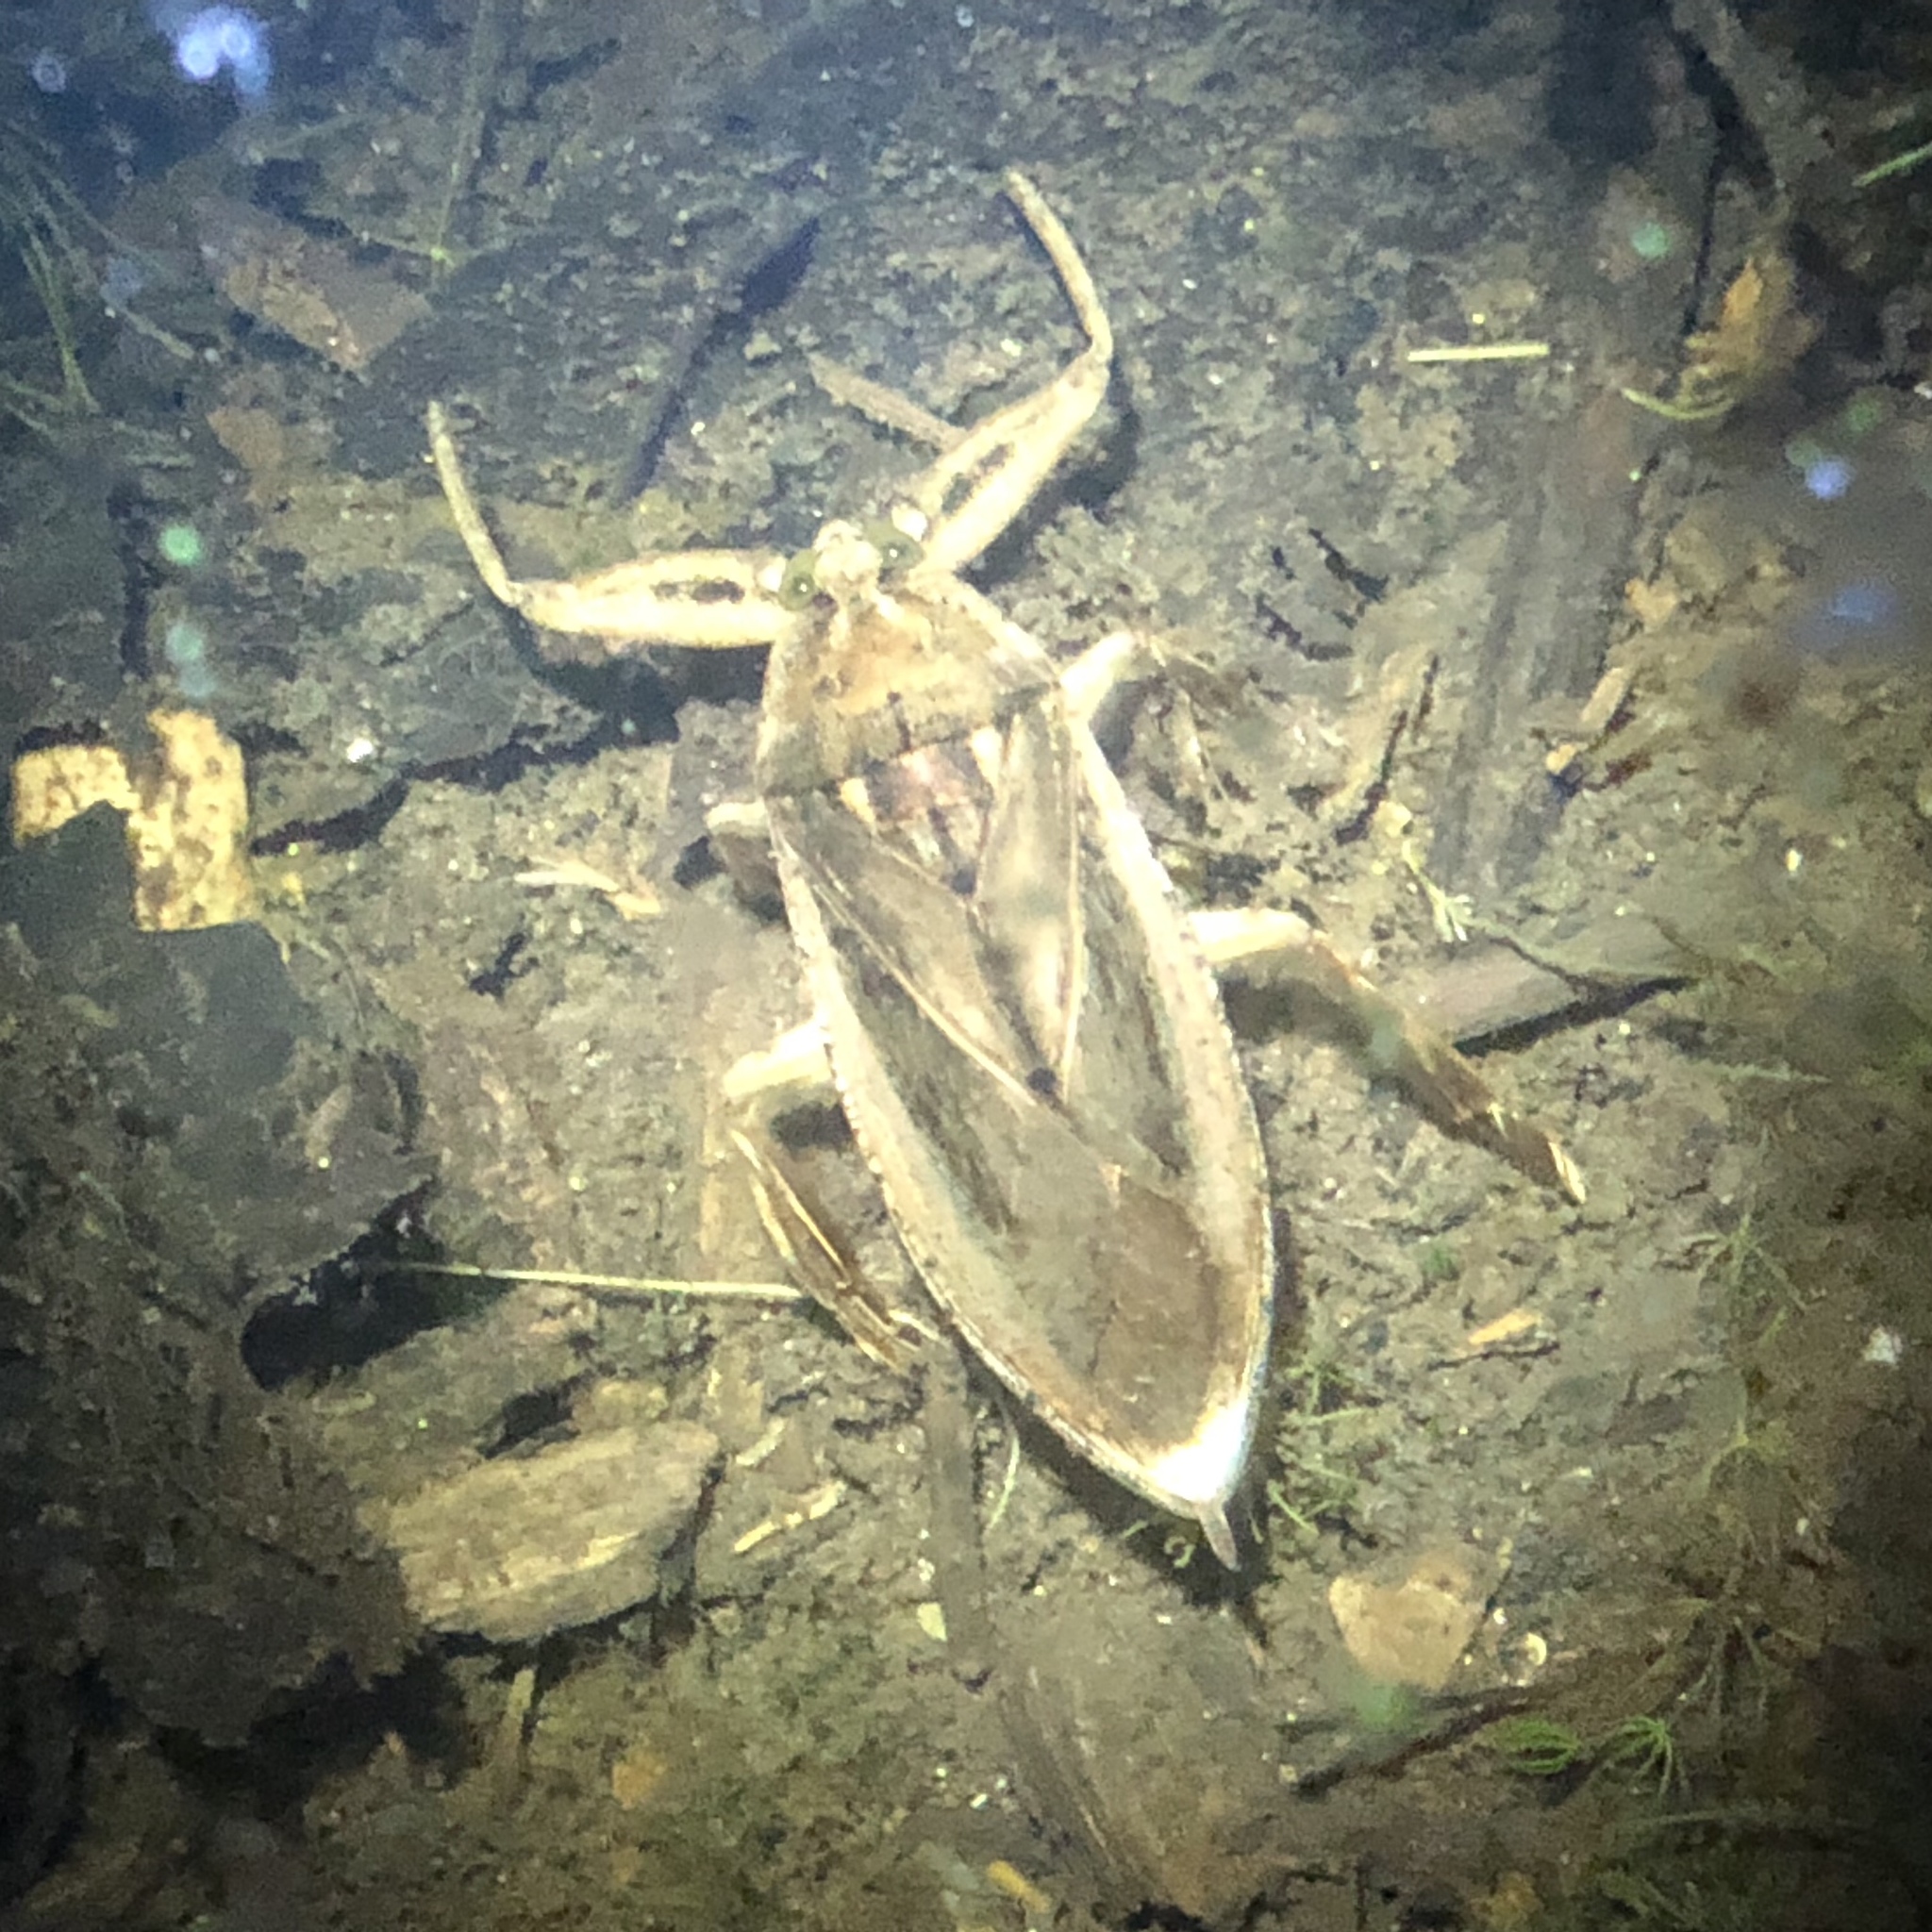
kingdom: Animalia
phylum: Arthropoda
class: Insecta
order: Hemiptera
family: Belostomatidae
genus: Lethocerus
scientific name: Lethocerus americanus
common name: Giant water bug
